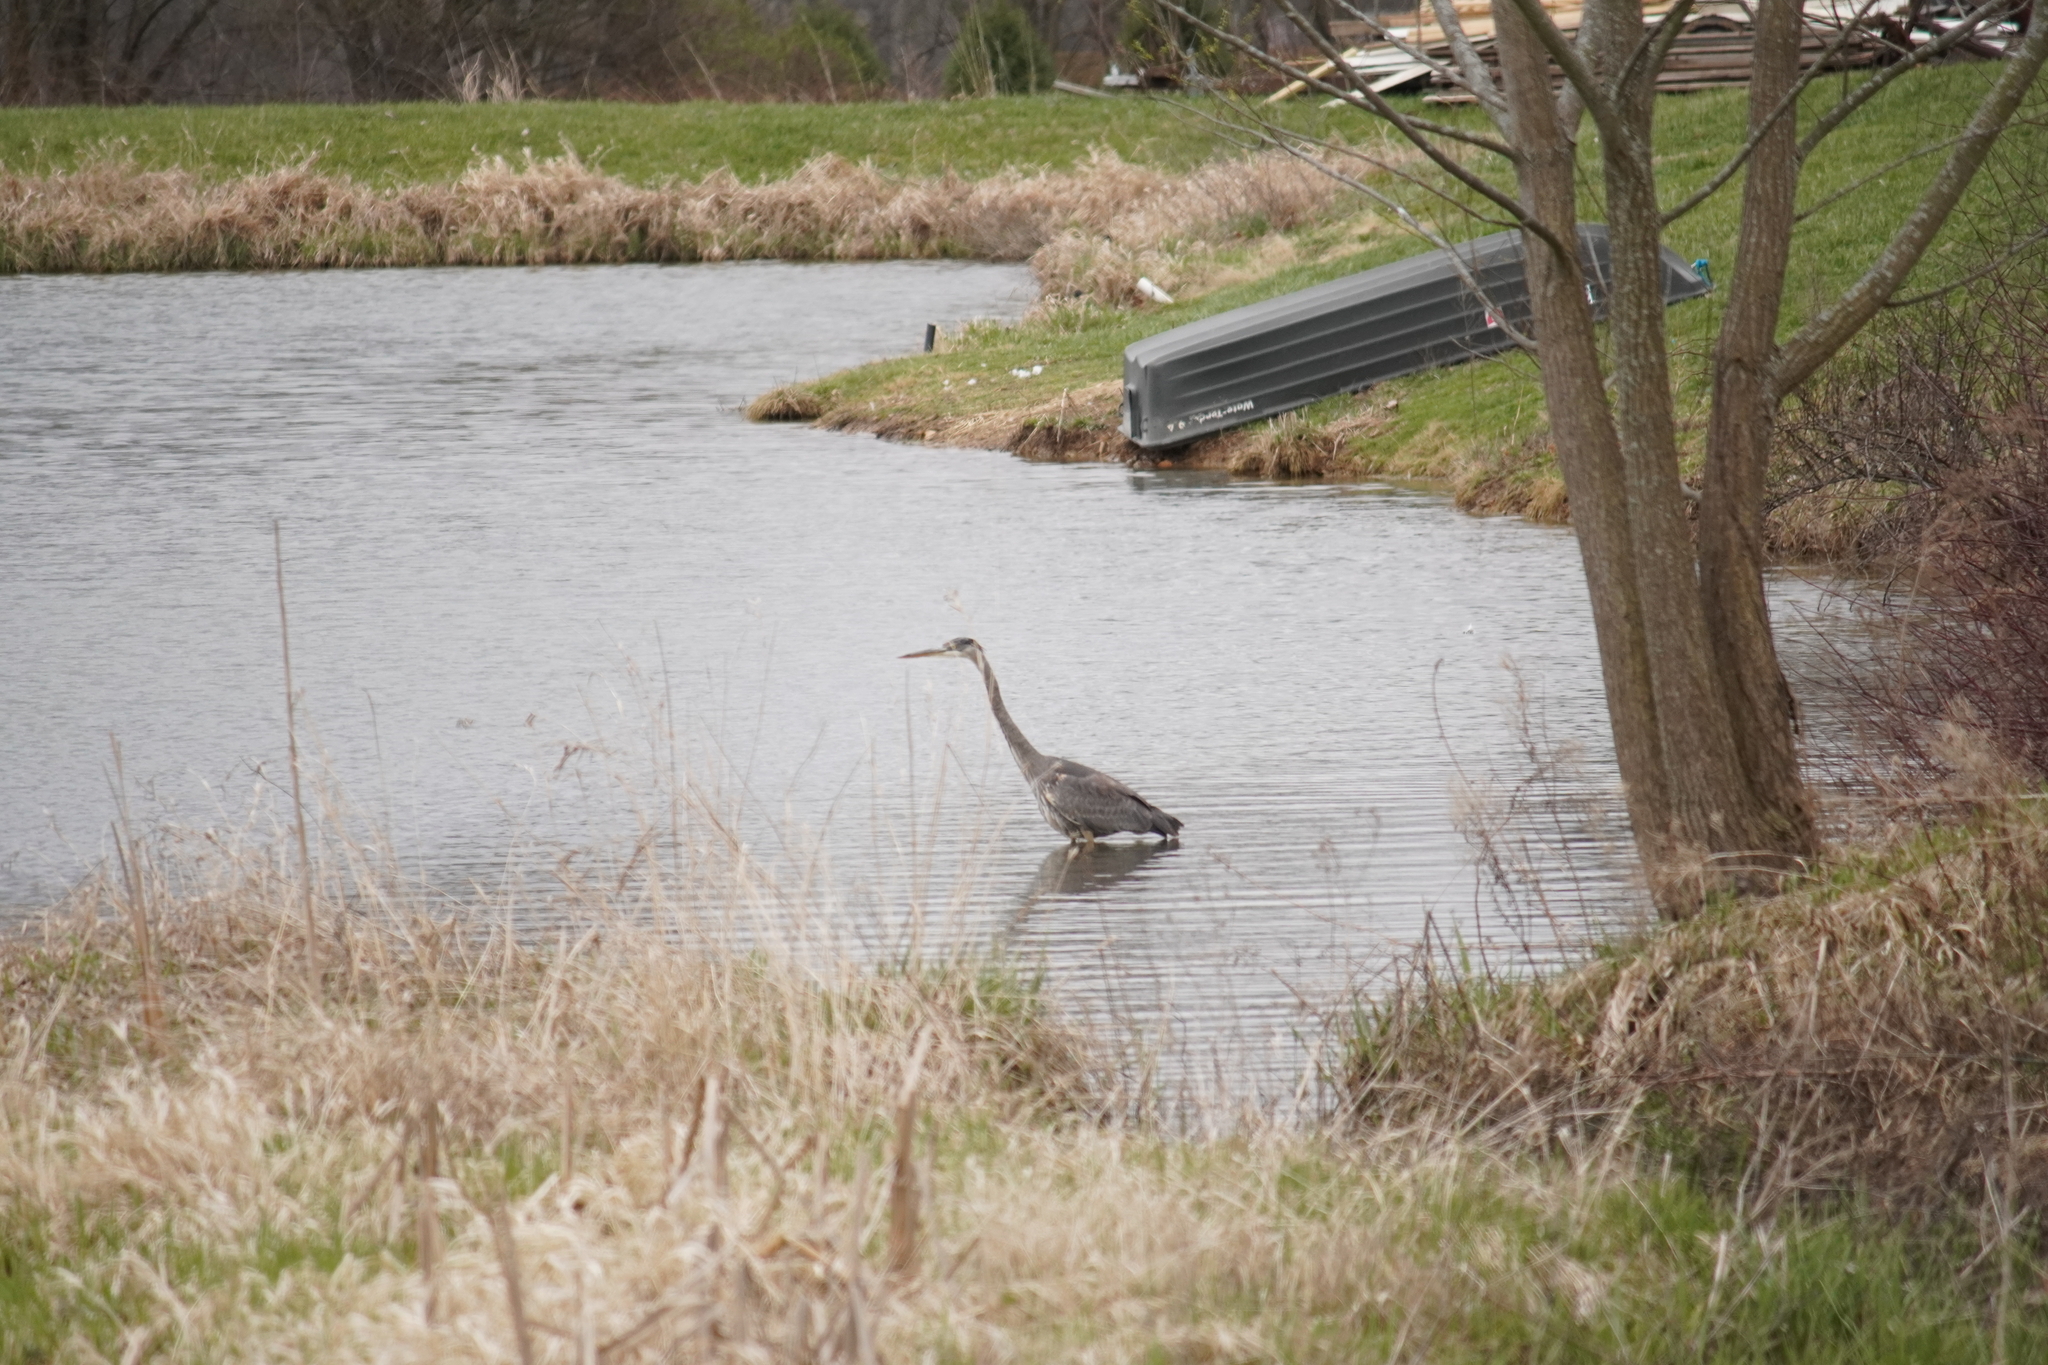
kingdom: Animalia
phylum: Chordata
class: Aves
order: Pelecaniformes
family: Ardeidae
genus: Ardea
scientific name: Ardea herodias
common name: Great blue heron
